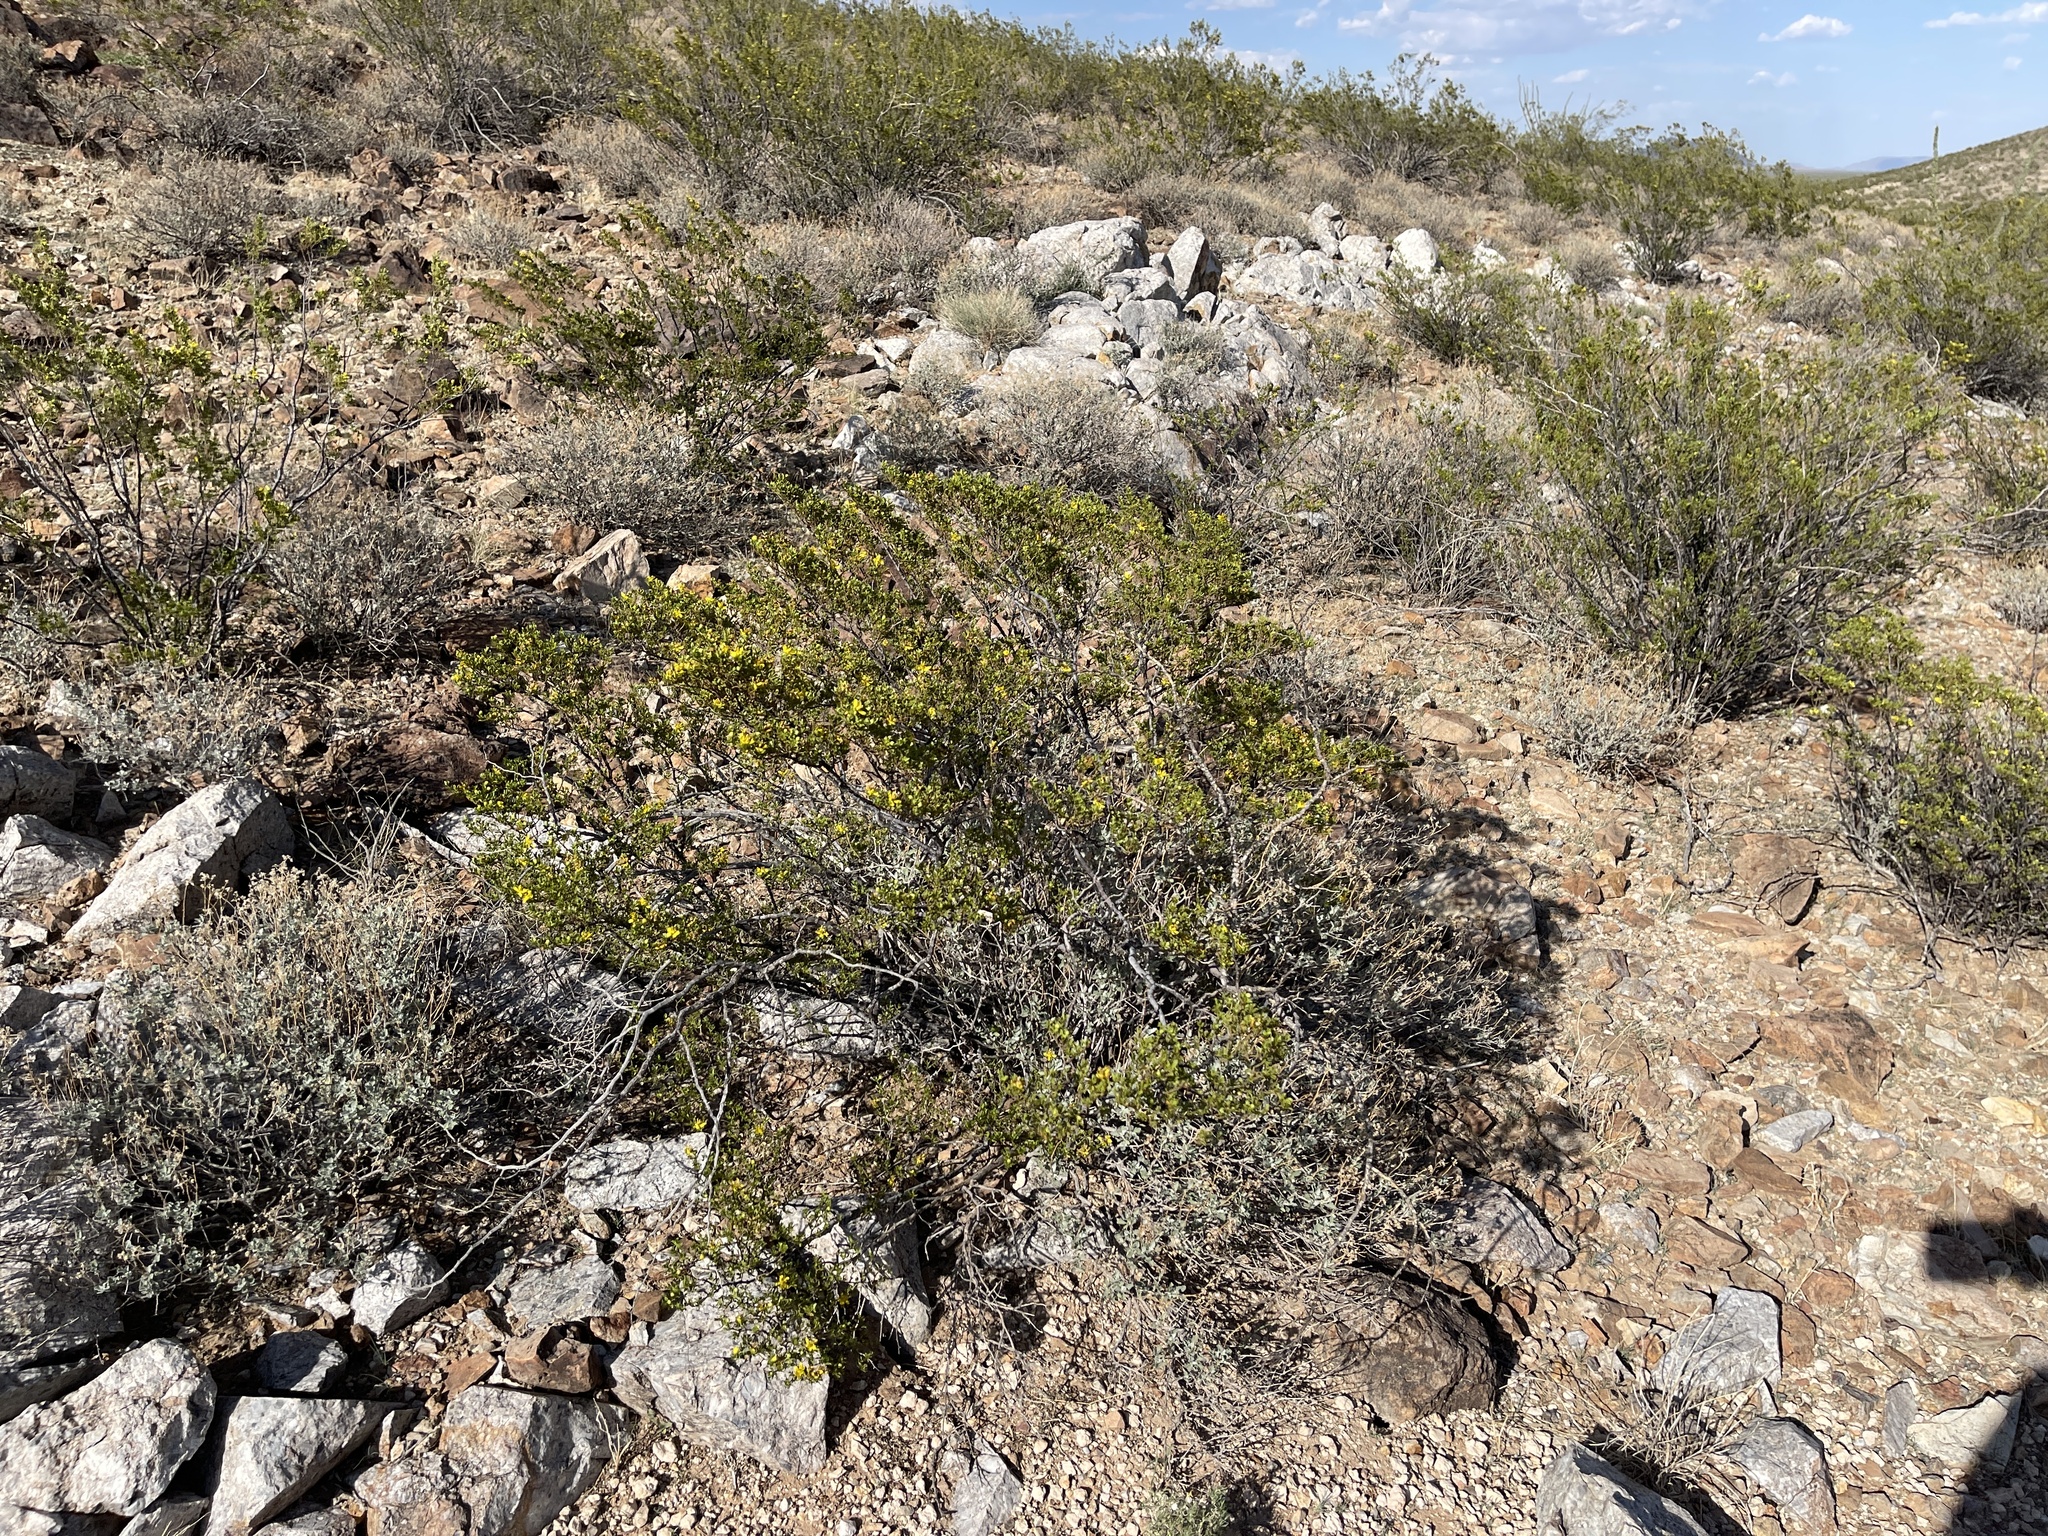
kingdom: Plantae
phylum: Tracheophyta
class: Magnoliopsida
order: Zygophyllales
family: Zygophyllaceae
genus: Larrea
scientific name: Larrea tridentata
